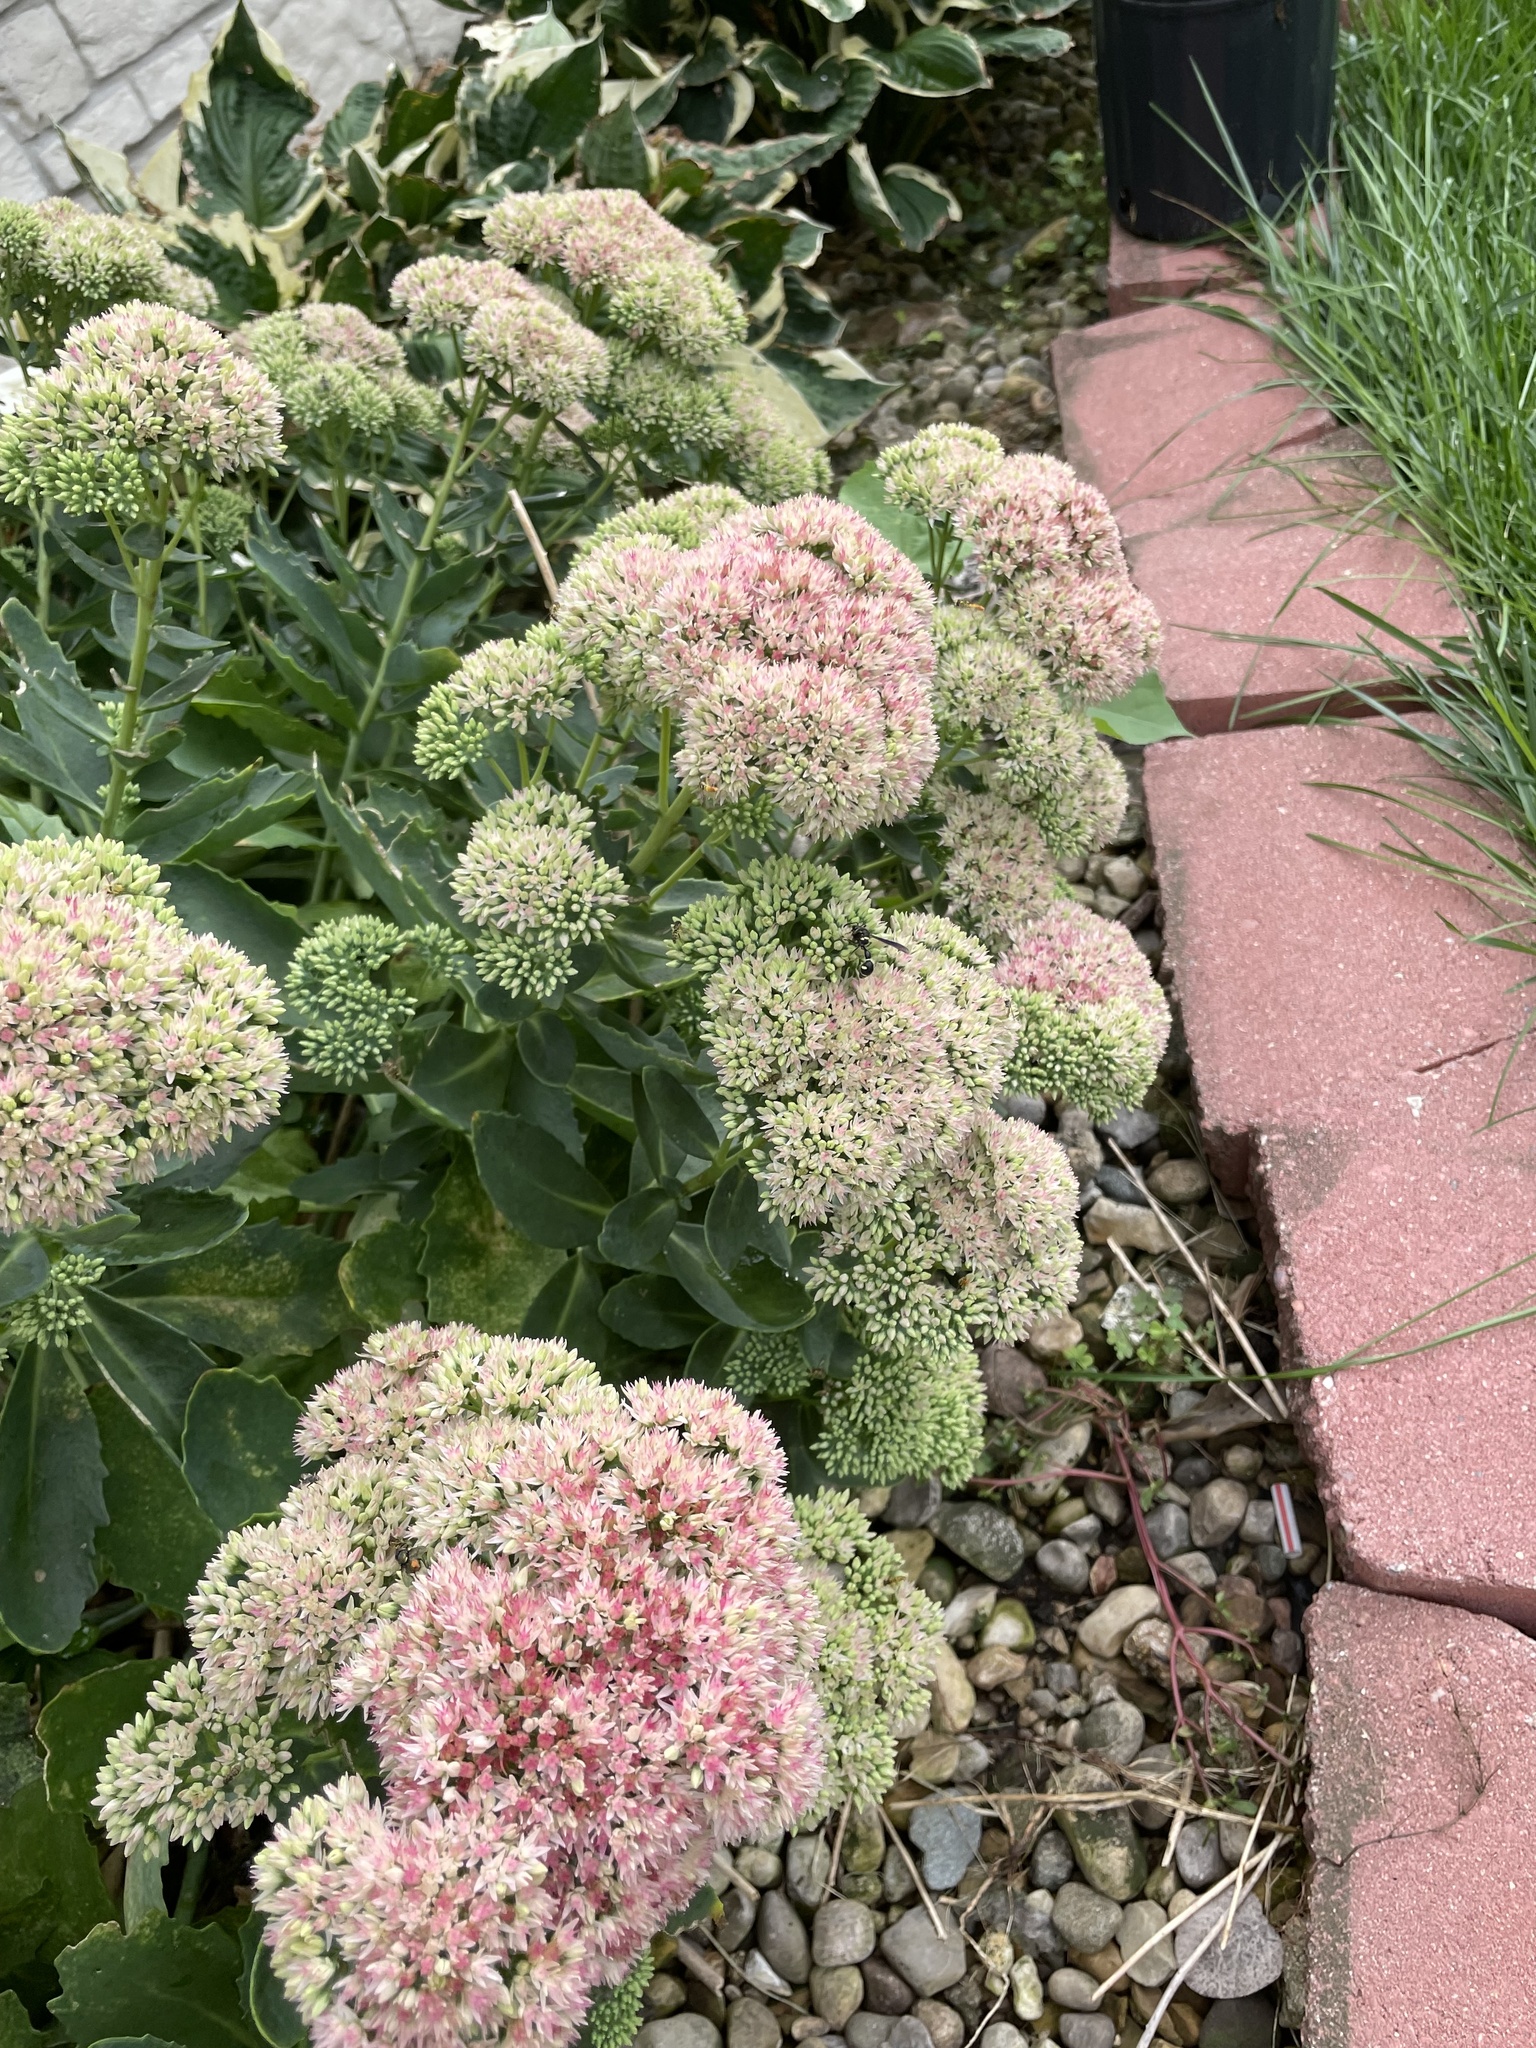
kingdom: Animalia
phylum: Arthropoda
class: Insecta
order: Hymenoptera
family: Vespidae
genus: Eumenes
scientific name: Eumenes fraternus
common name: Fraternal potter wasp
